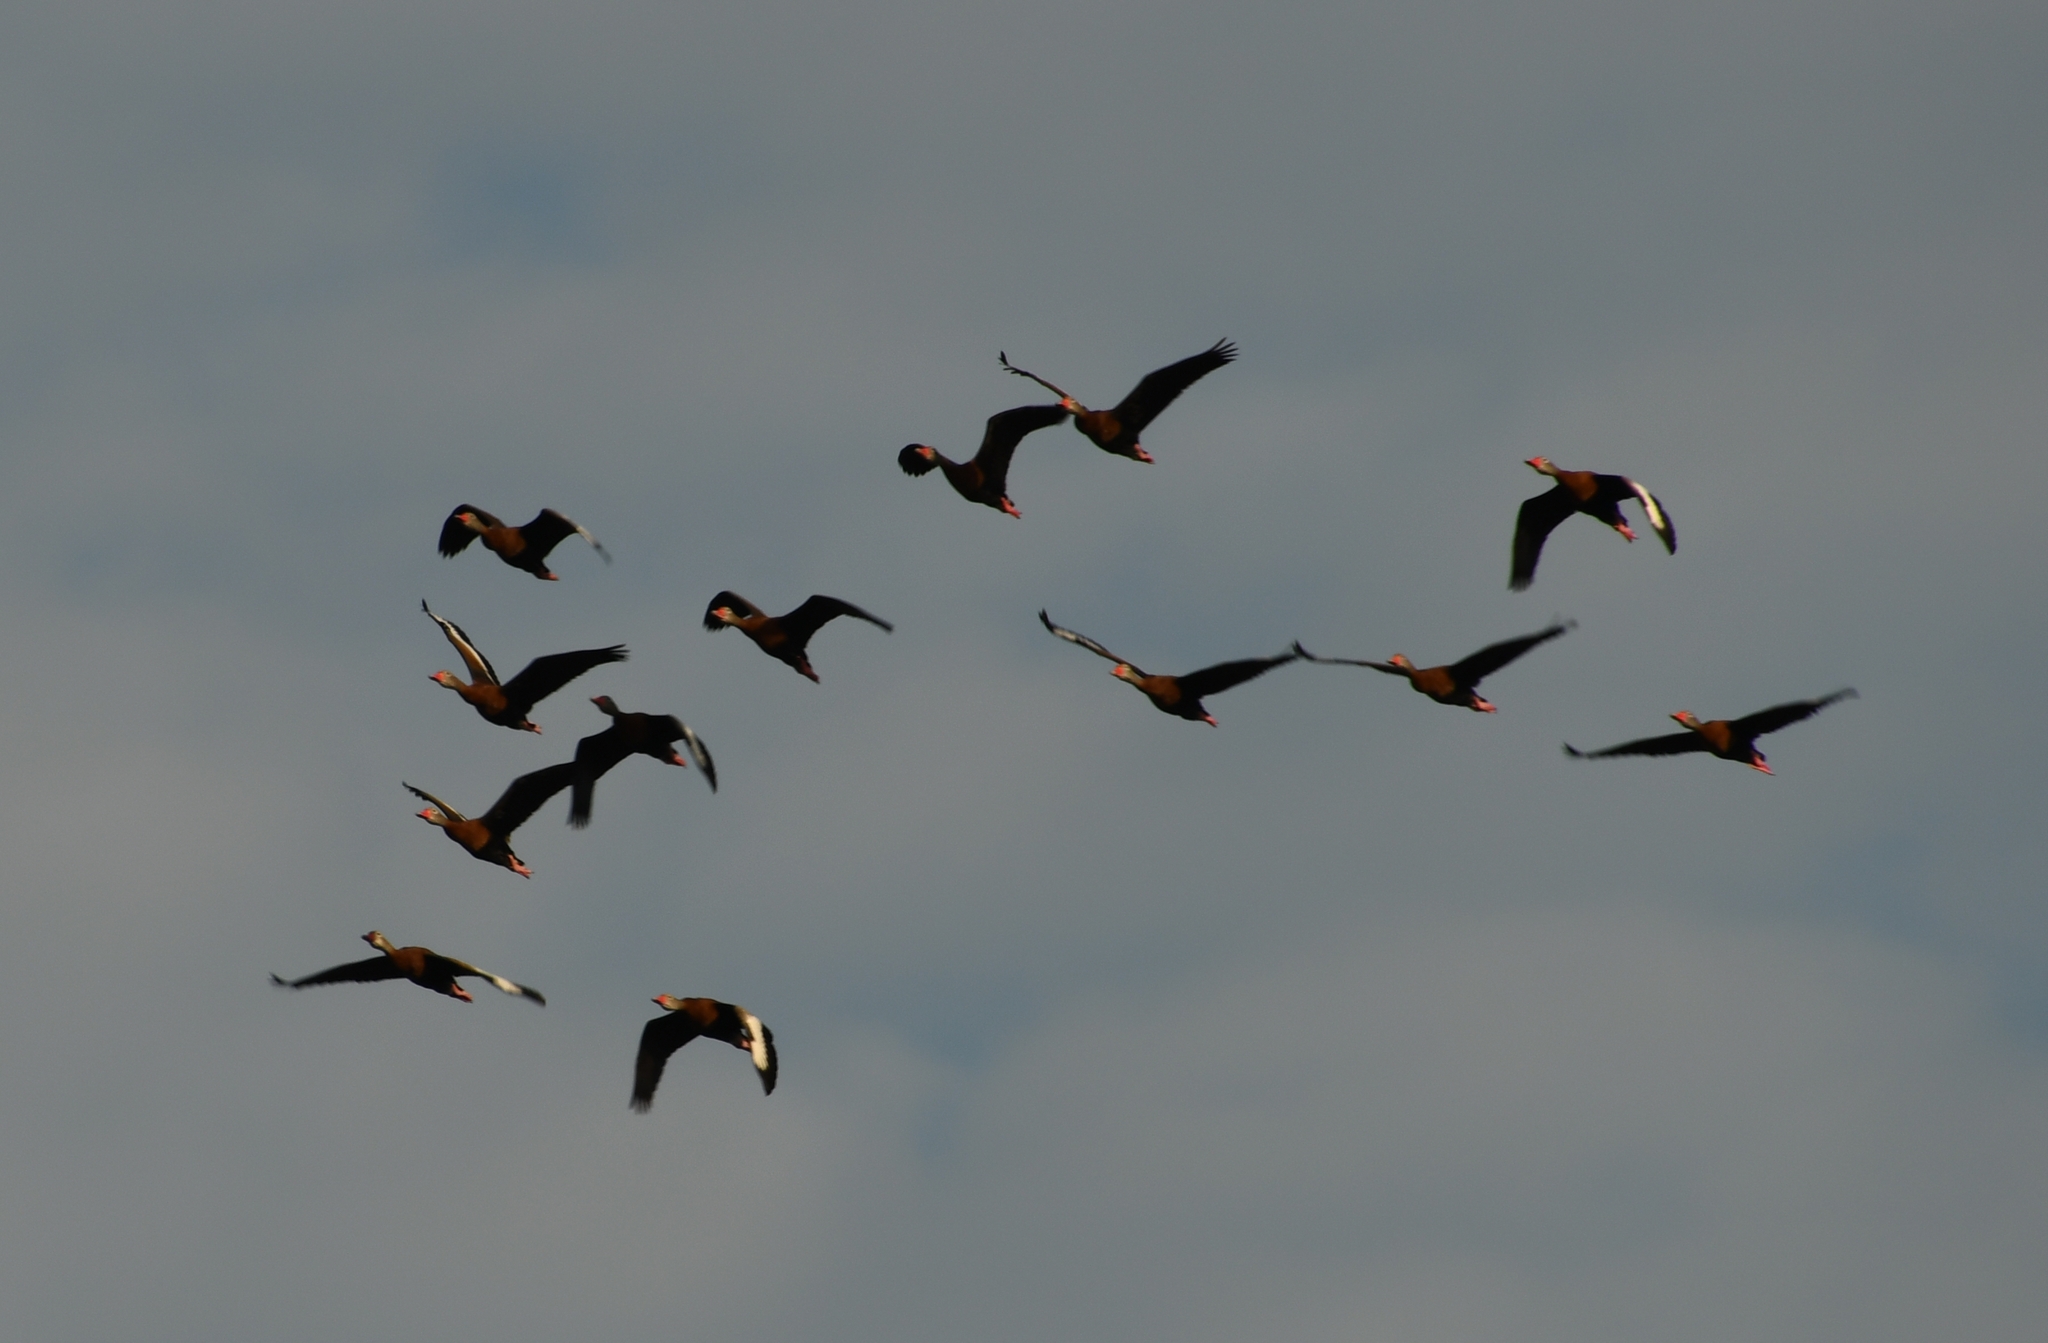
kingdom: Animalia
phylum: Chordata
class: Aves
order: Anseriformes
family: Anatidae
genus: Dendrocygna
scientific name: Dendrocygna autumnalis
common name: Black-bellied whistling duck
